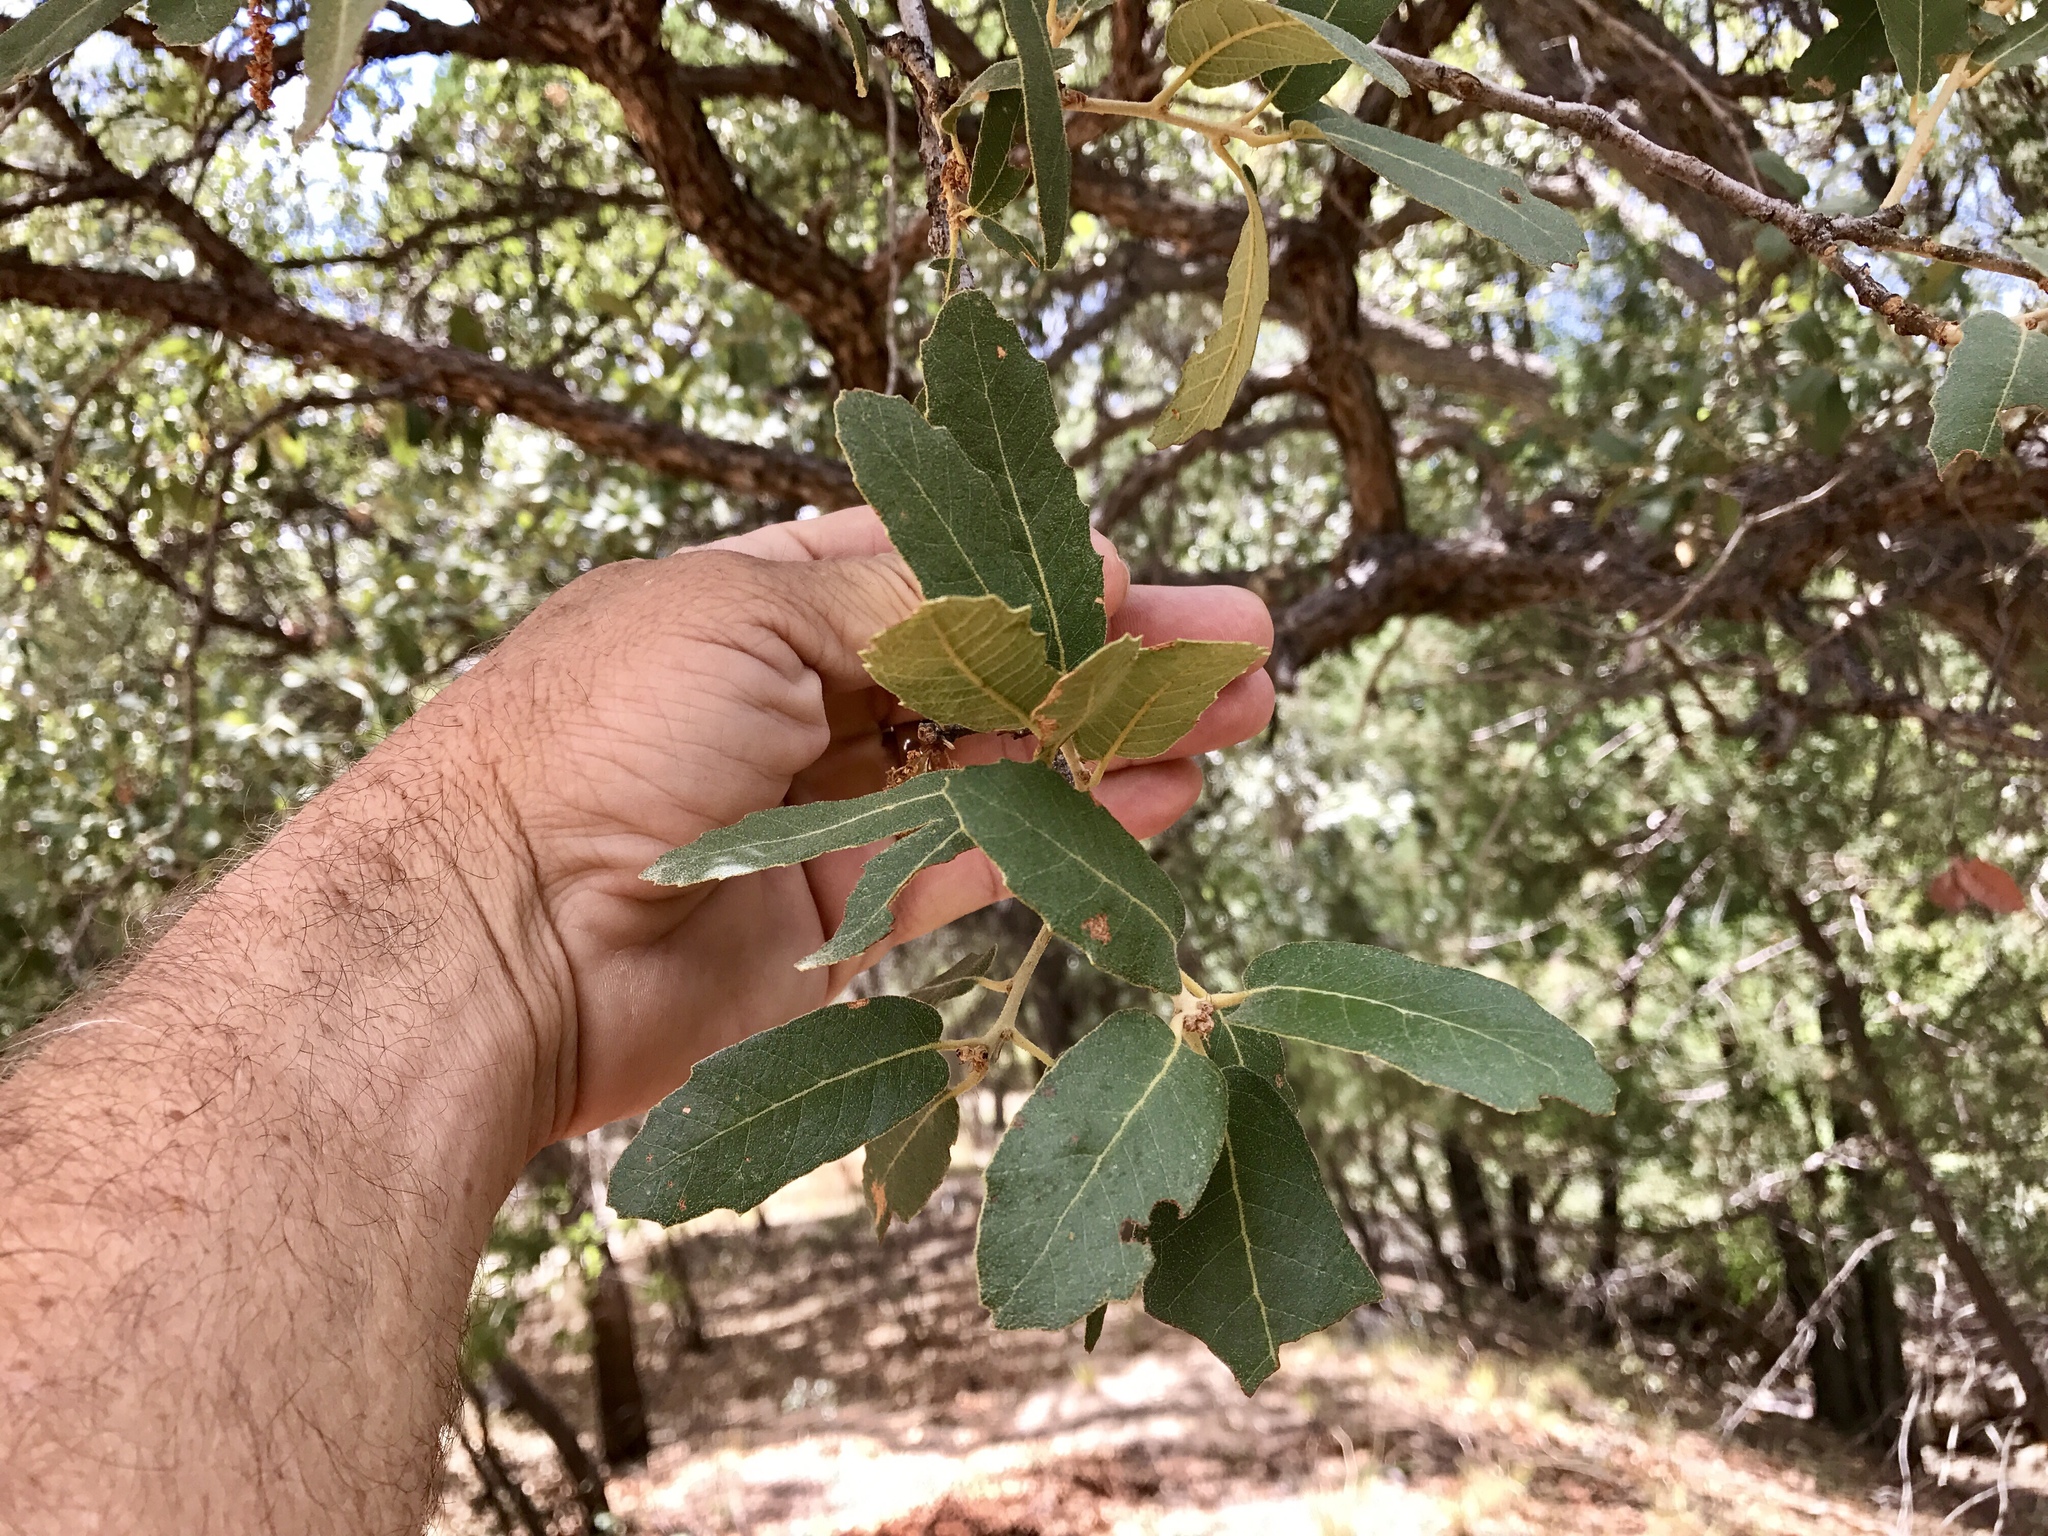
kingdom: Plantae
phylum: Tracheophyta
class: Magnoliopsida
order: Fagales
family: Fagaceae
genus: Quercus
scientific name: Quercus arizonica
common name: Arizona white oak
